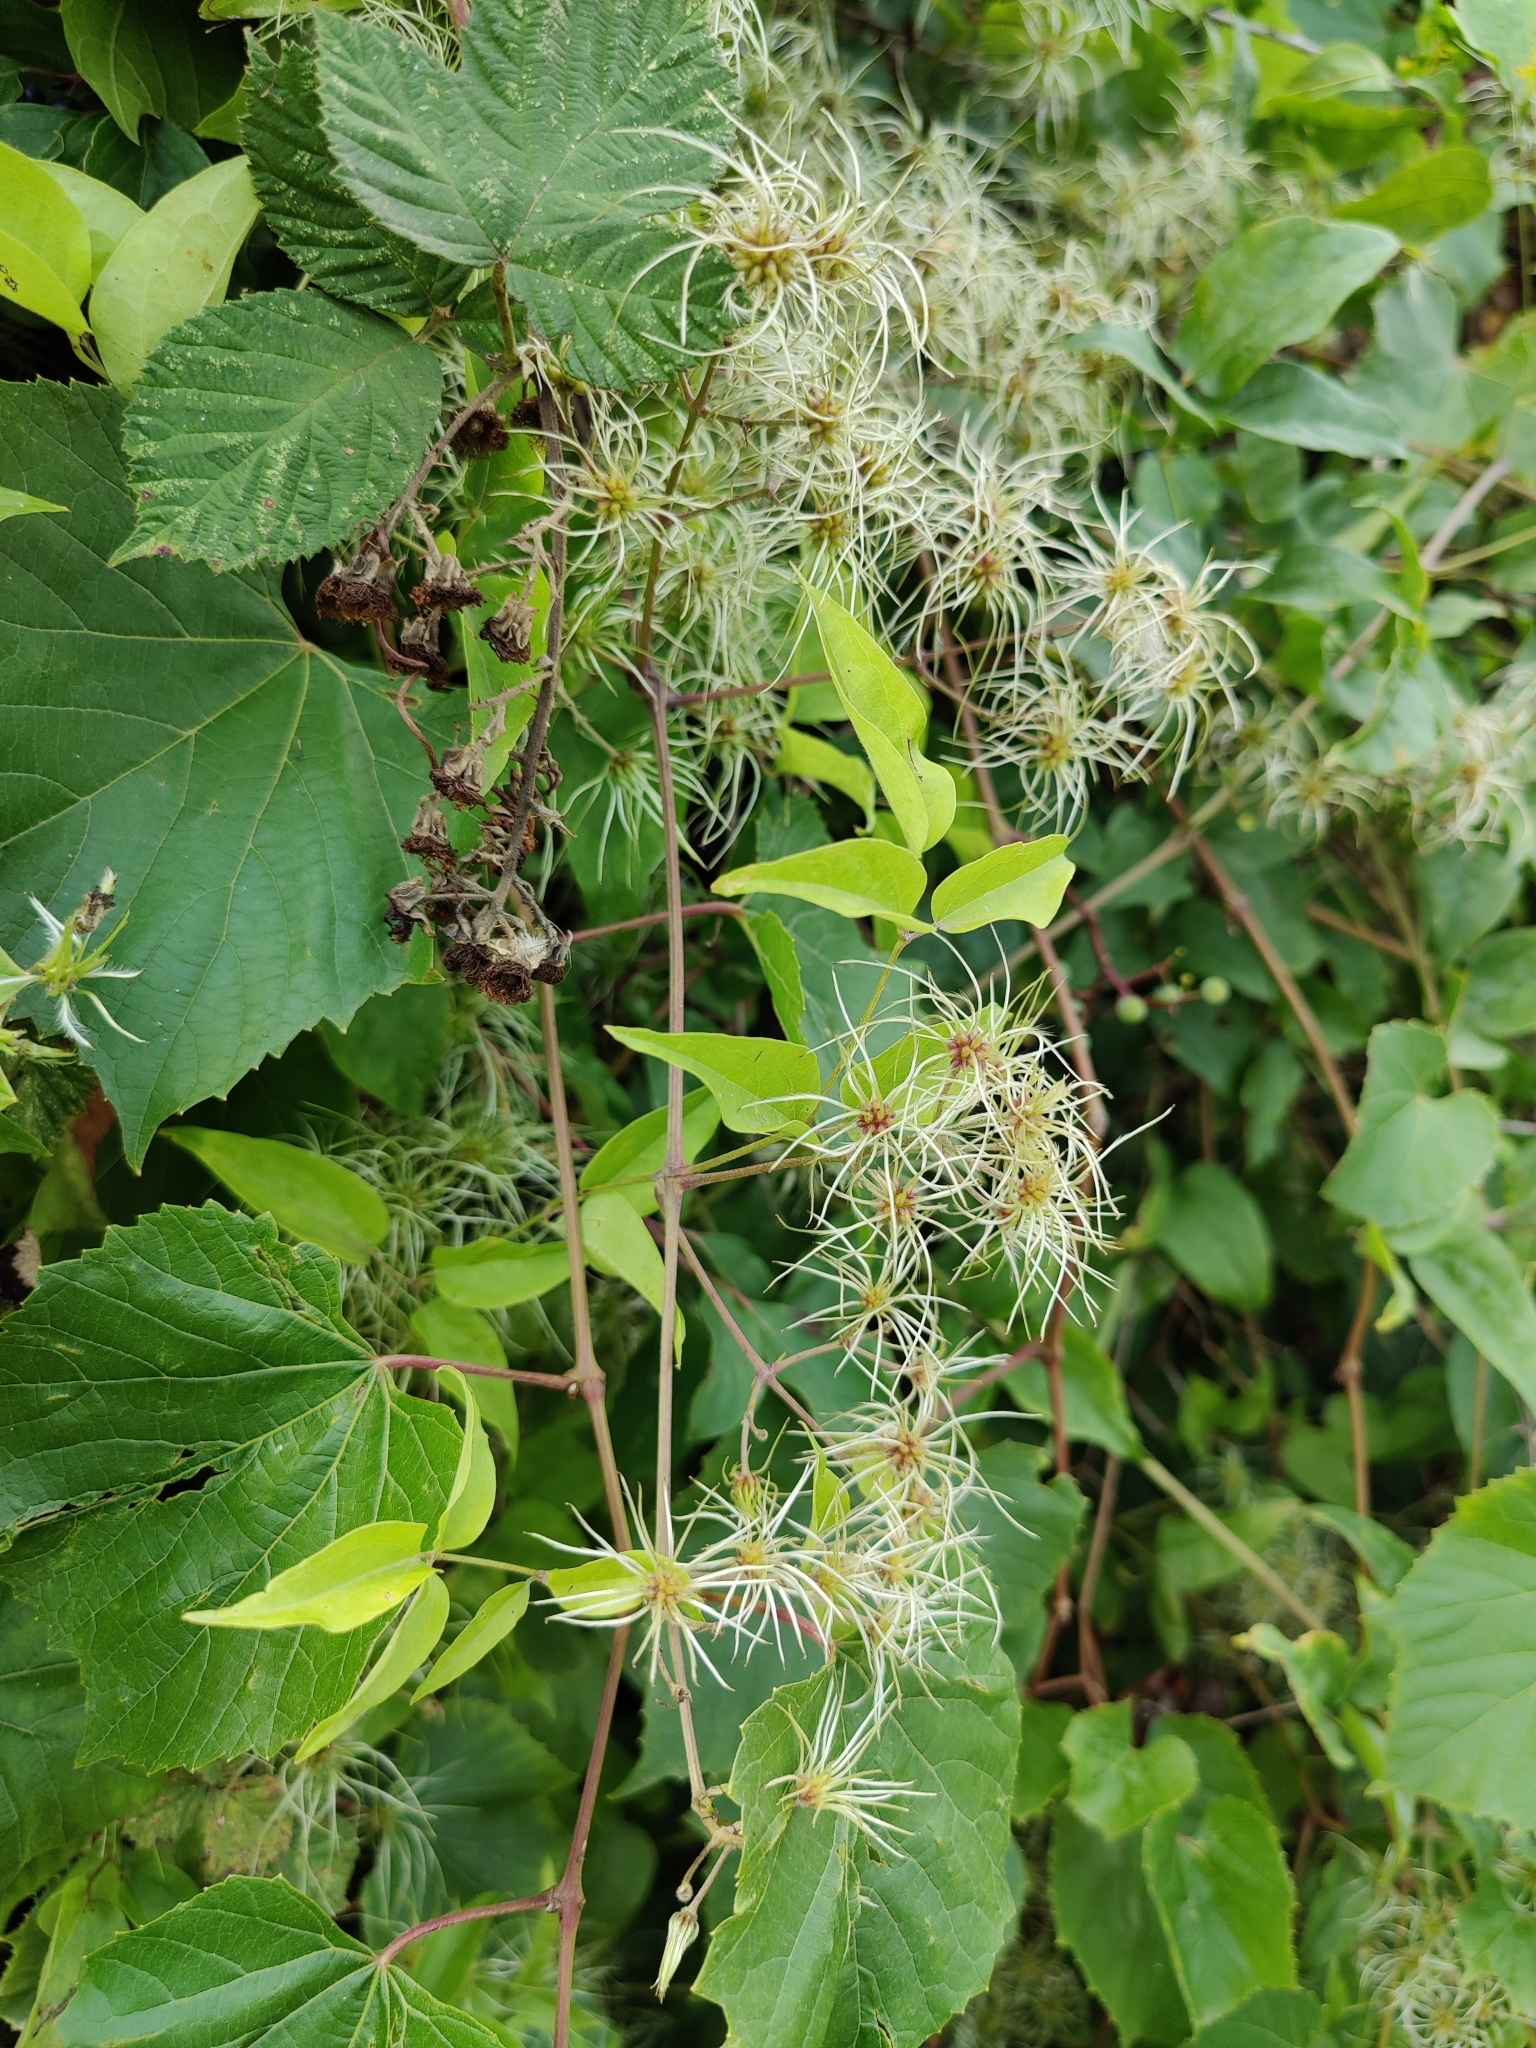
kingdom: Plantae
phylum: Tracheophyta
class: Magnoliopsida
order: Ranunculales
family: Ranunculaceae
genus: Clematis
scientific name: Clematis vitalba
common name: Evergreen clematis
